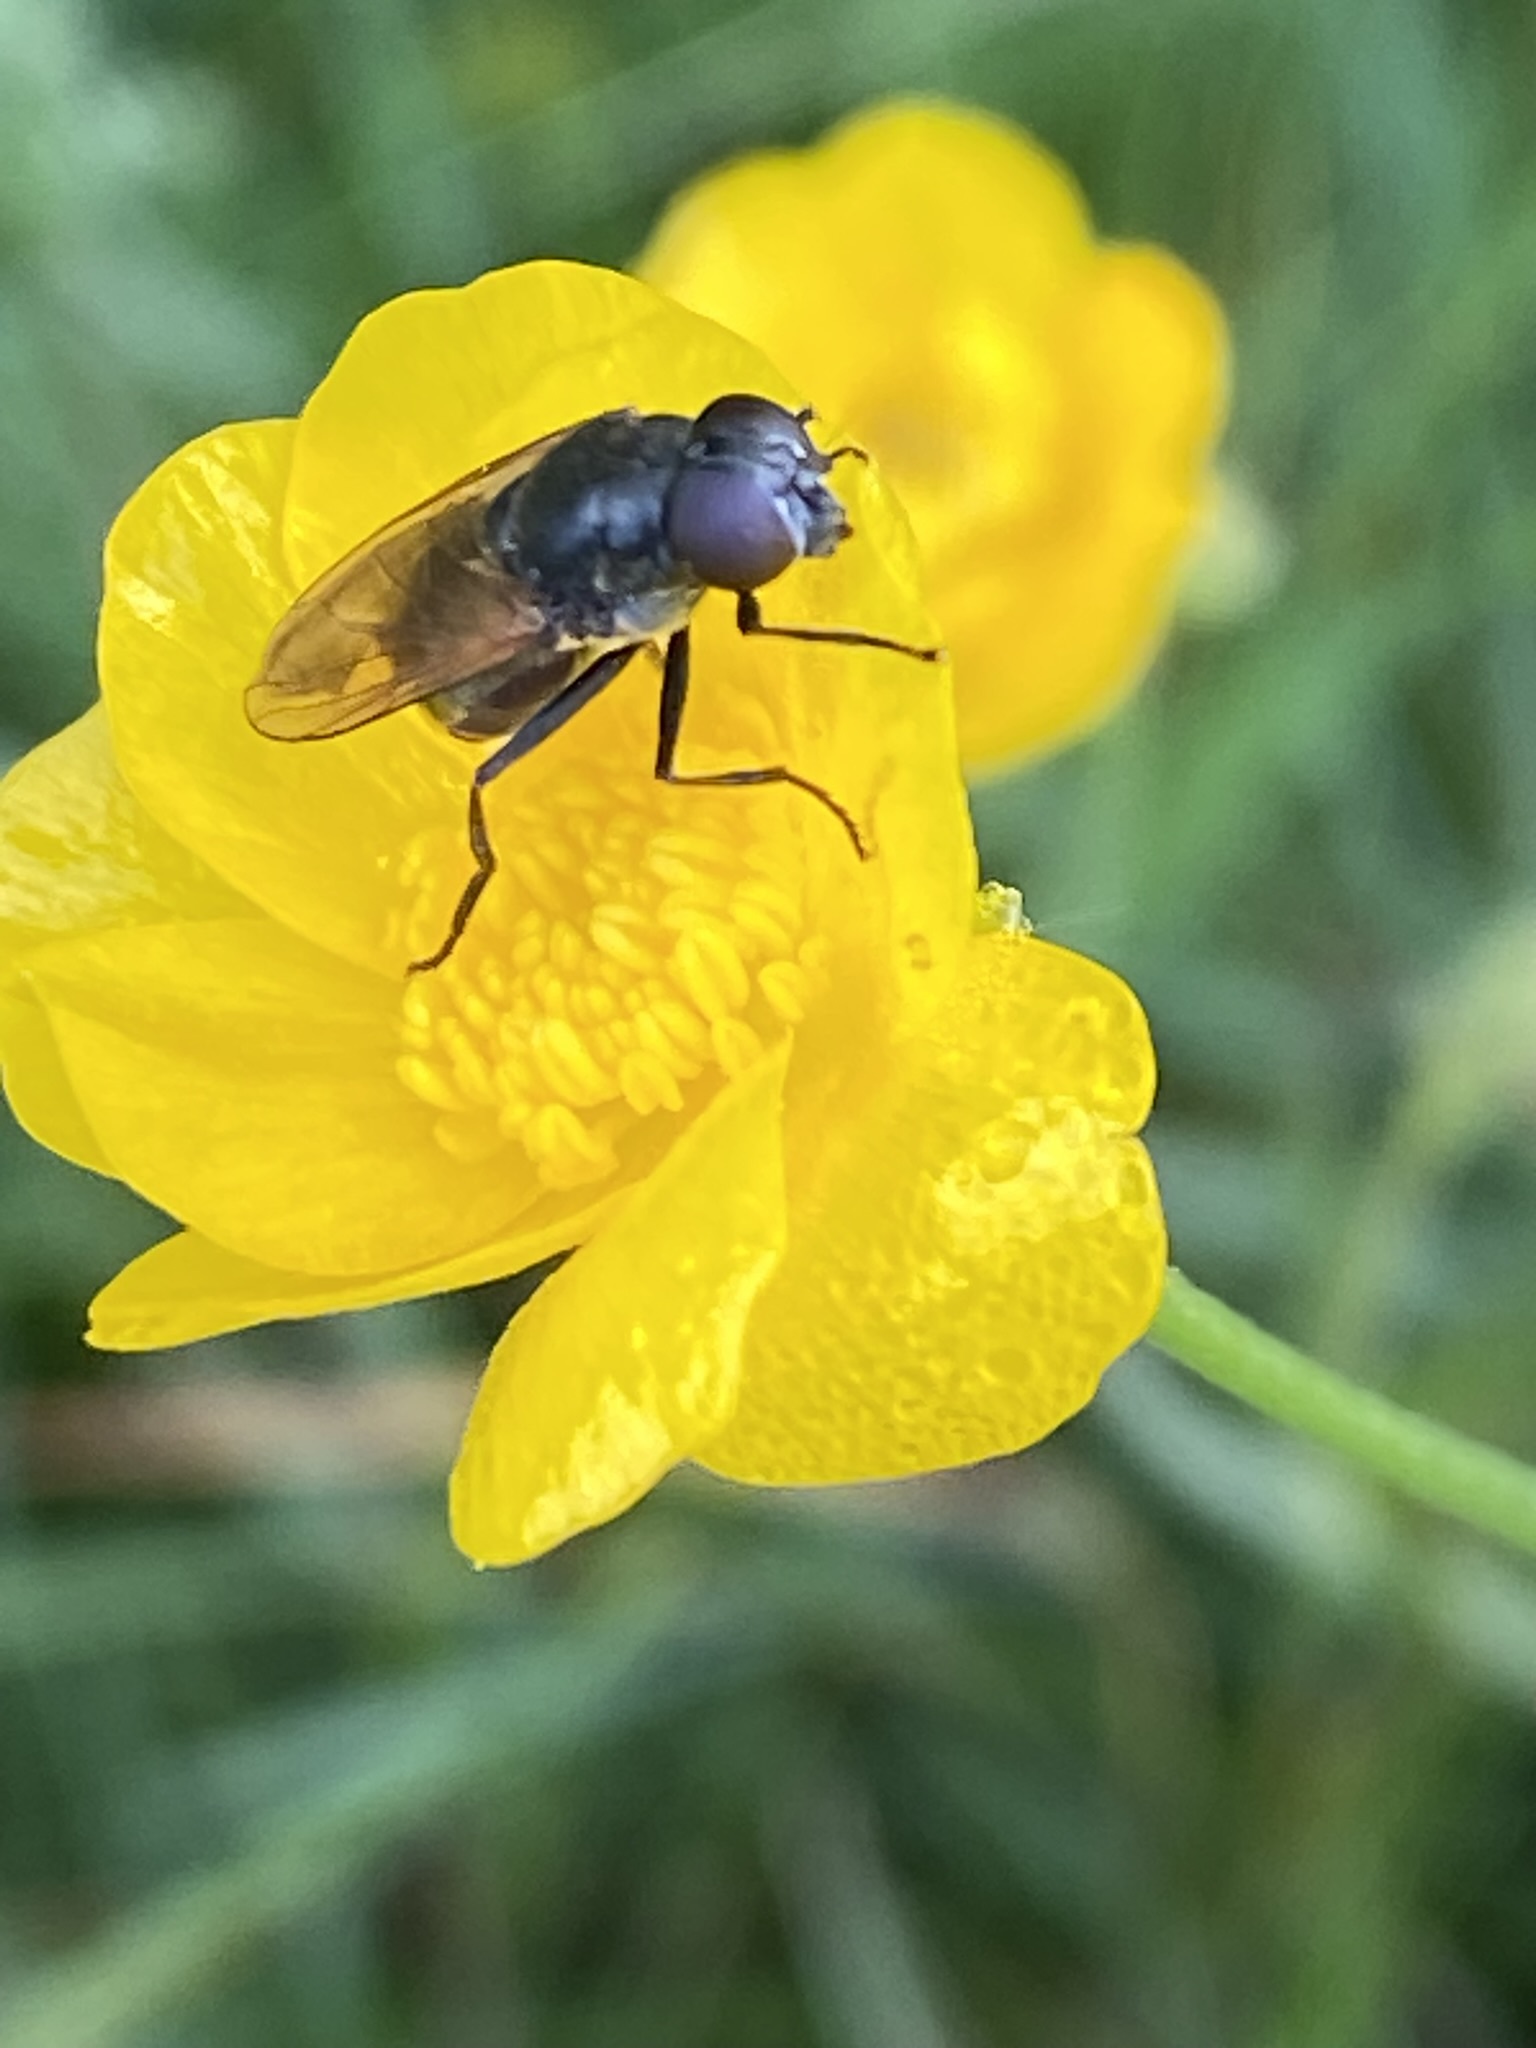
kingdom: Animalia
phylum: Arthropoda
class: Insecta
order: Diptera
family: Syrphidae
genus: Cheilosia
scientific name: Cheilosia
